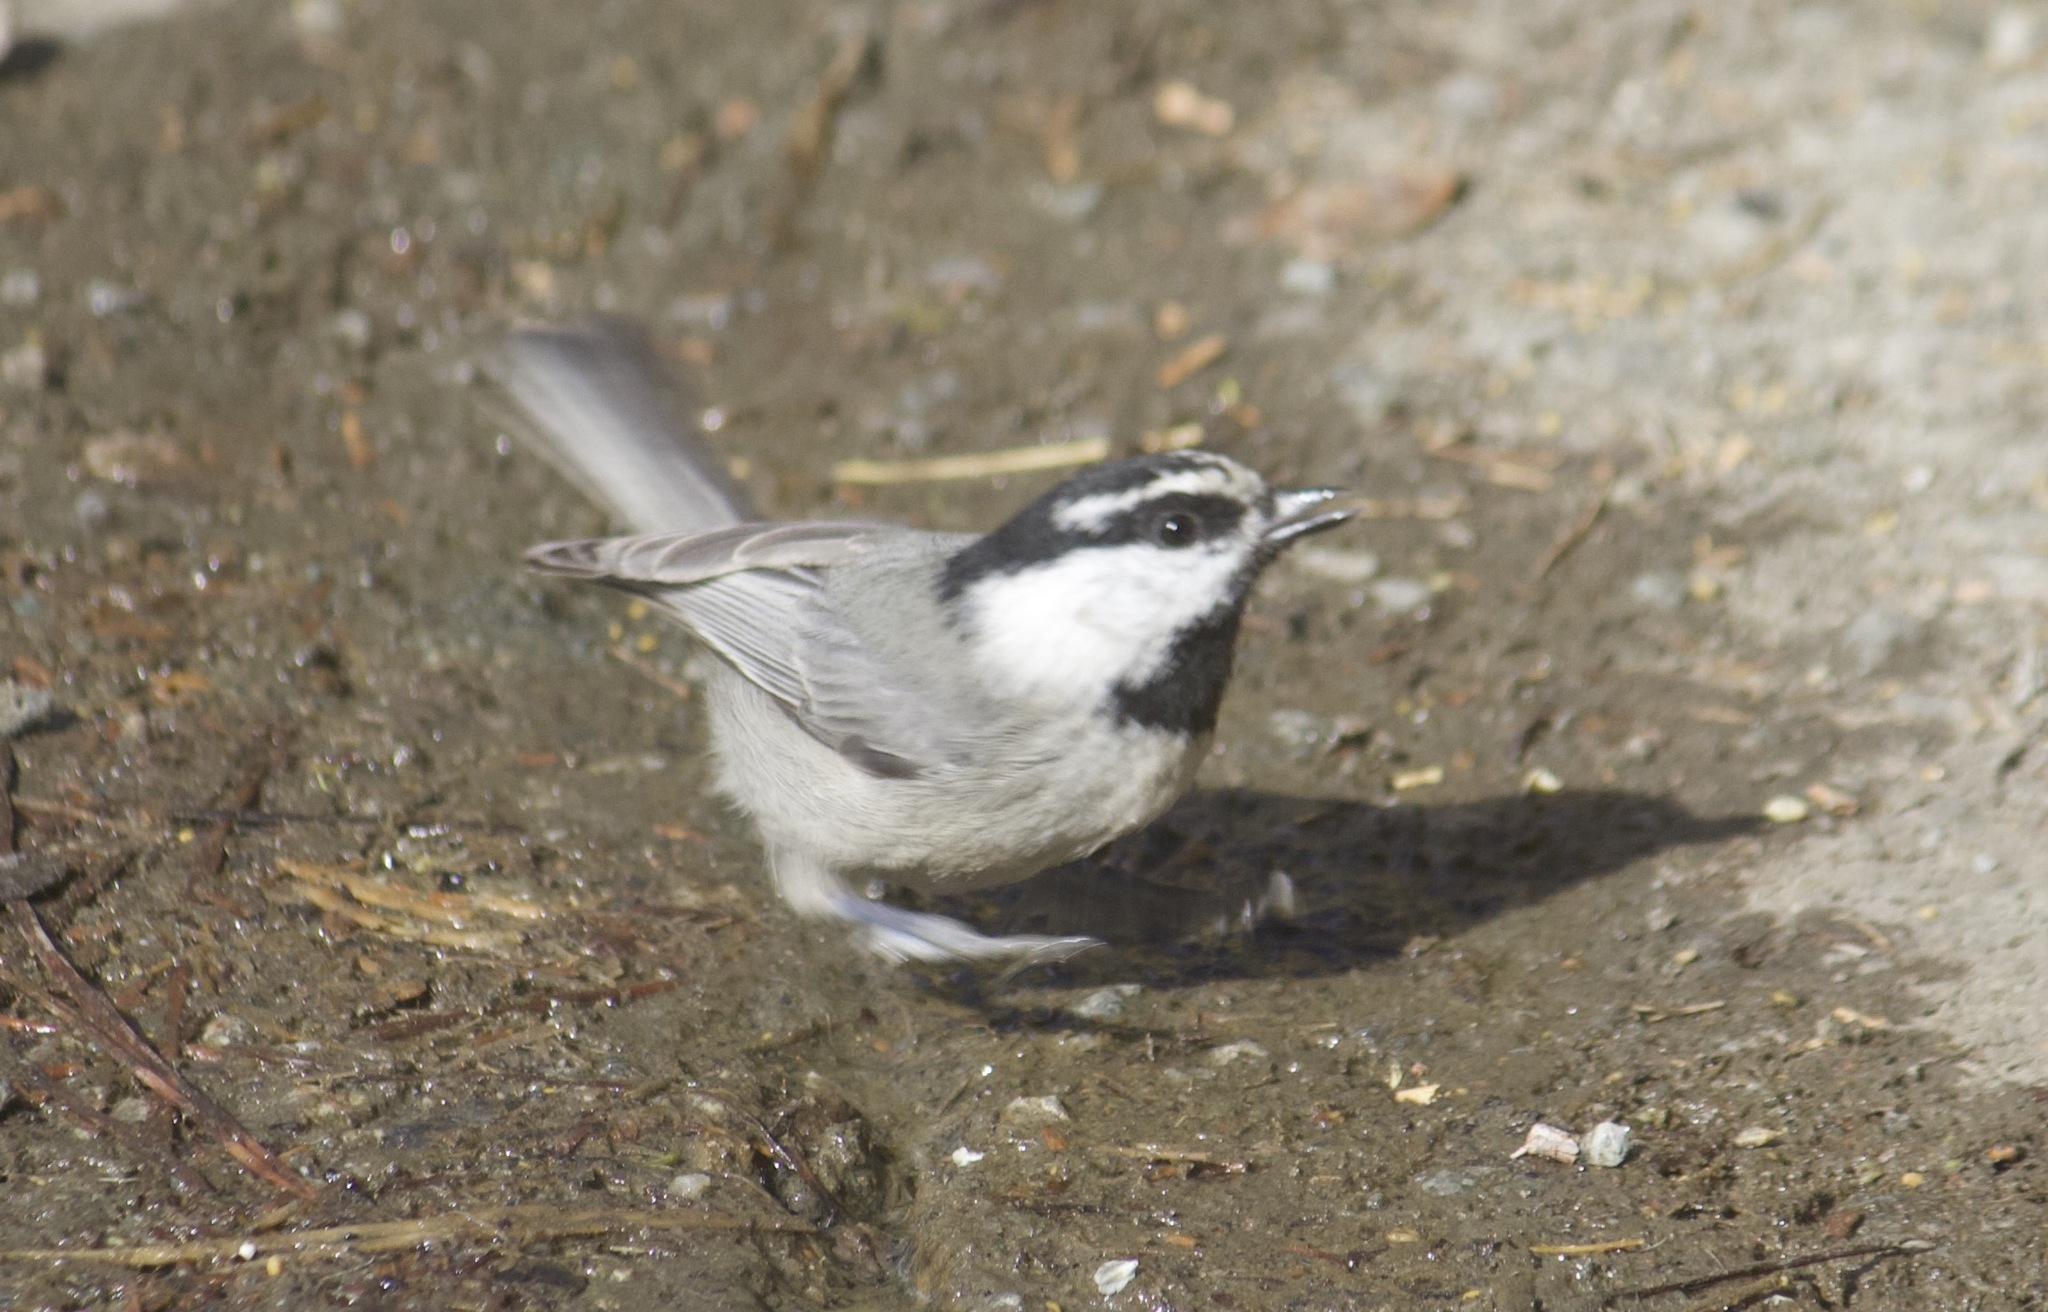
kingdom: Animalia
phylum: Chordata
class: Aves
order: Passeriformes
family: Paridae
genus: Poecile
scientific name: Poecile gambeli
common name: Mountain chickadee
